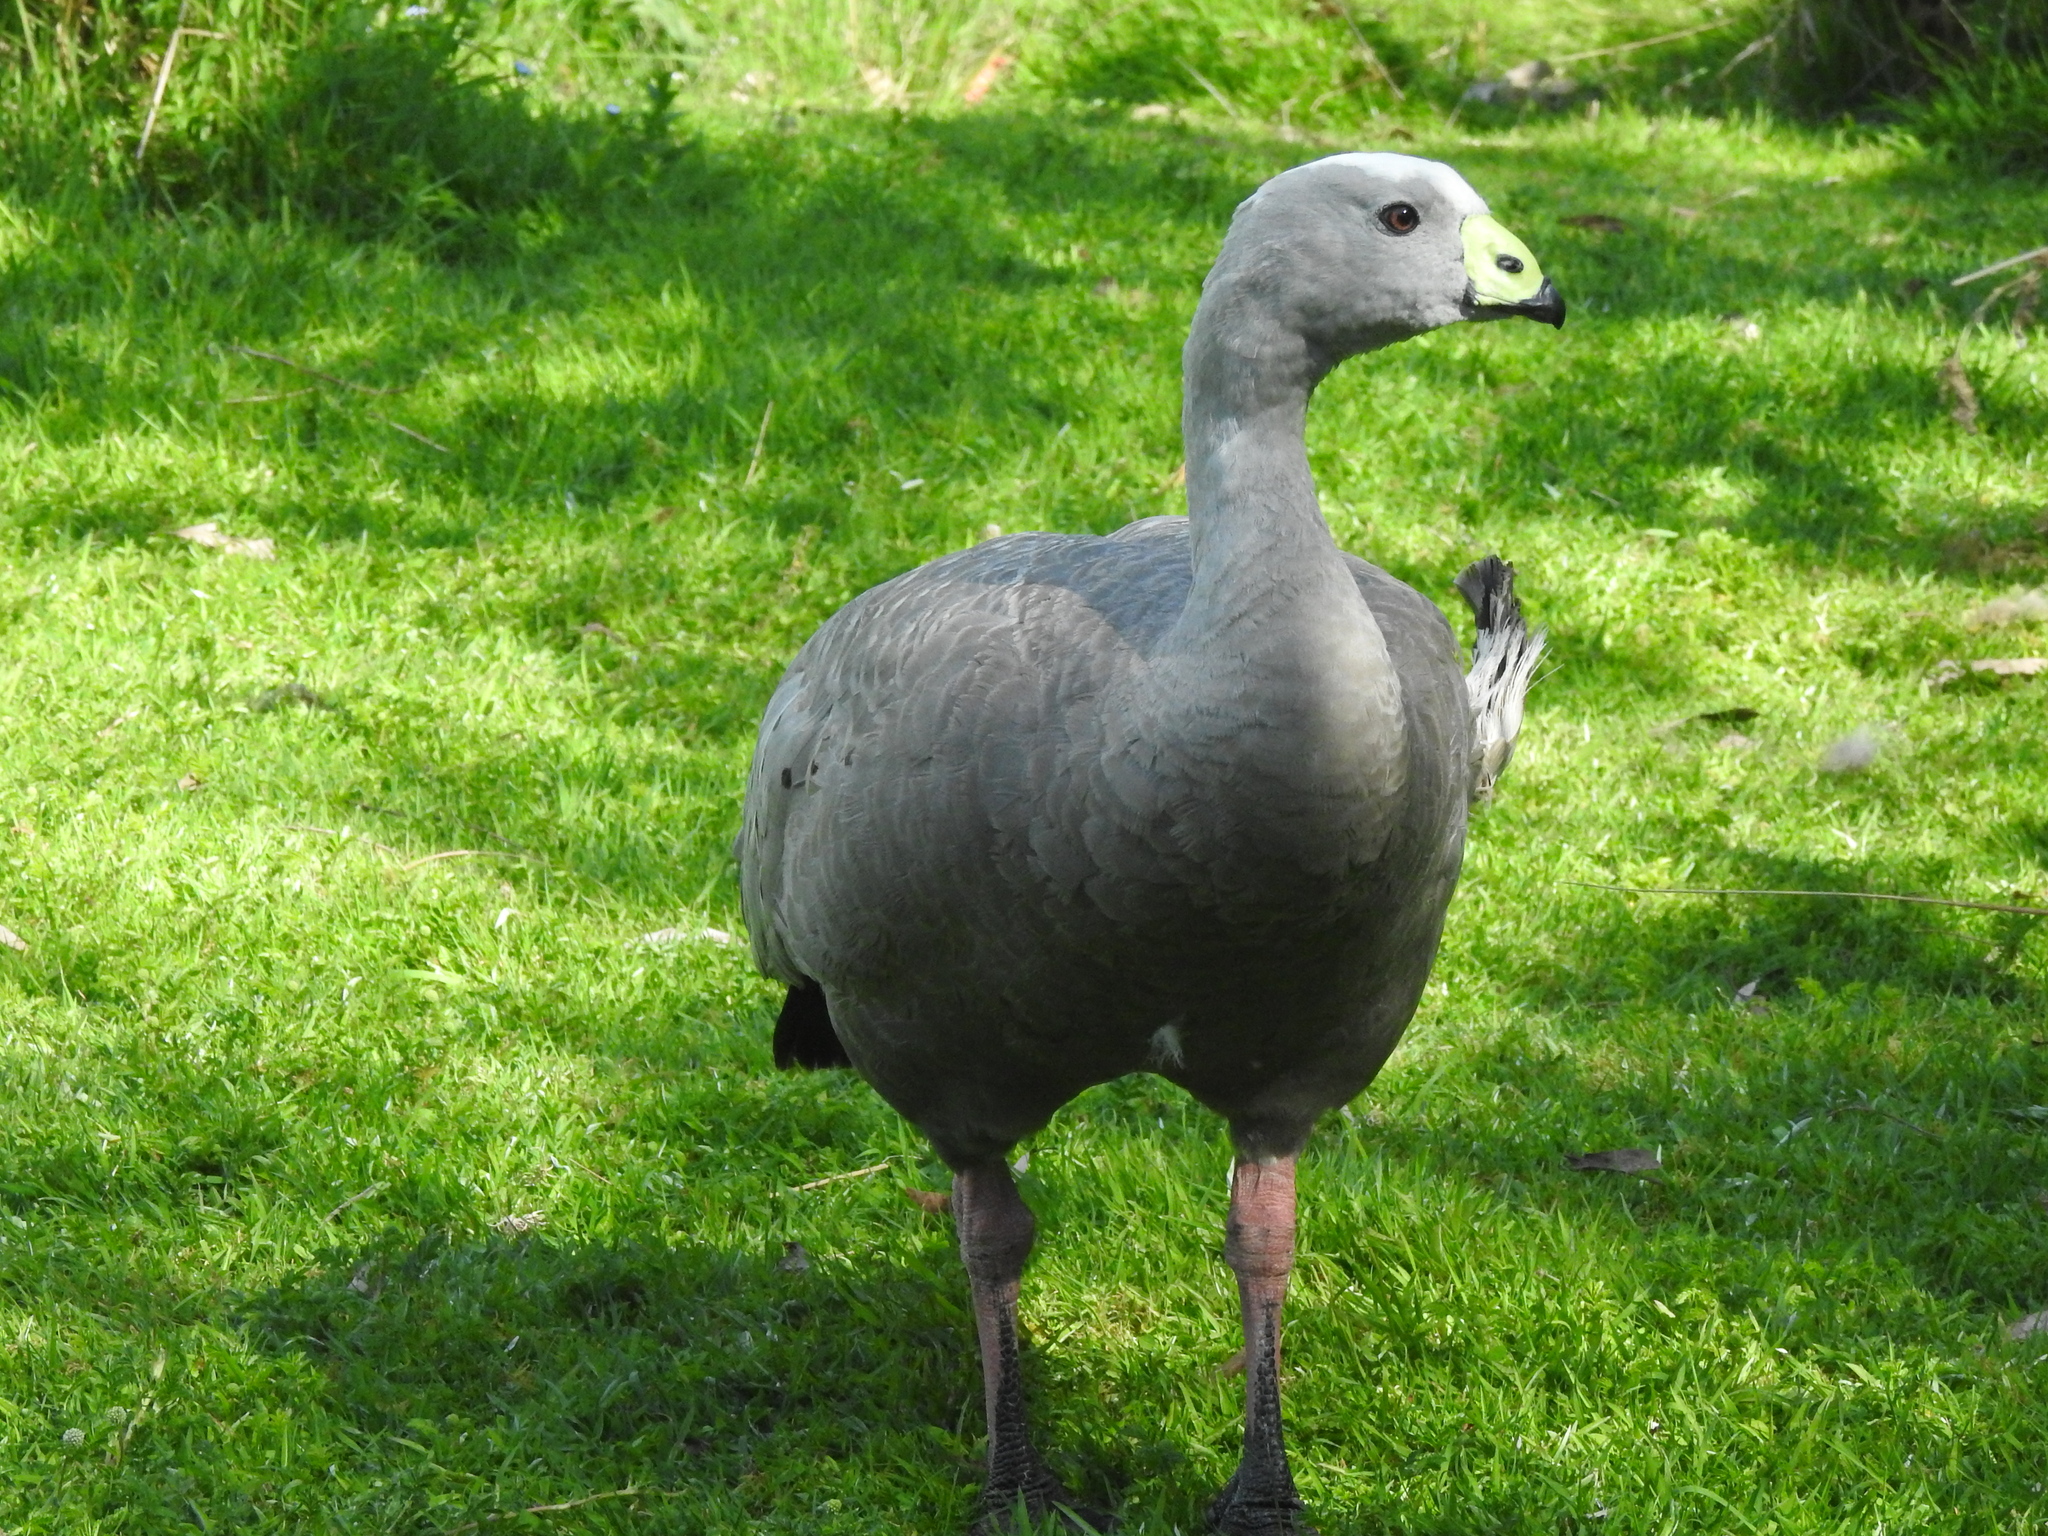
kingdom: Animalia
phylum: Chordata
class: Aves
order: Anseriformes
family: Anatidae
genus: Cereopsis
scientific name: Cereopsis novaehollandiae
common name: Cape barren goose
